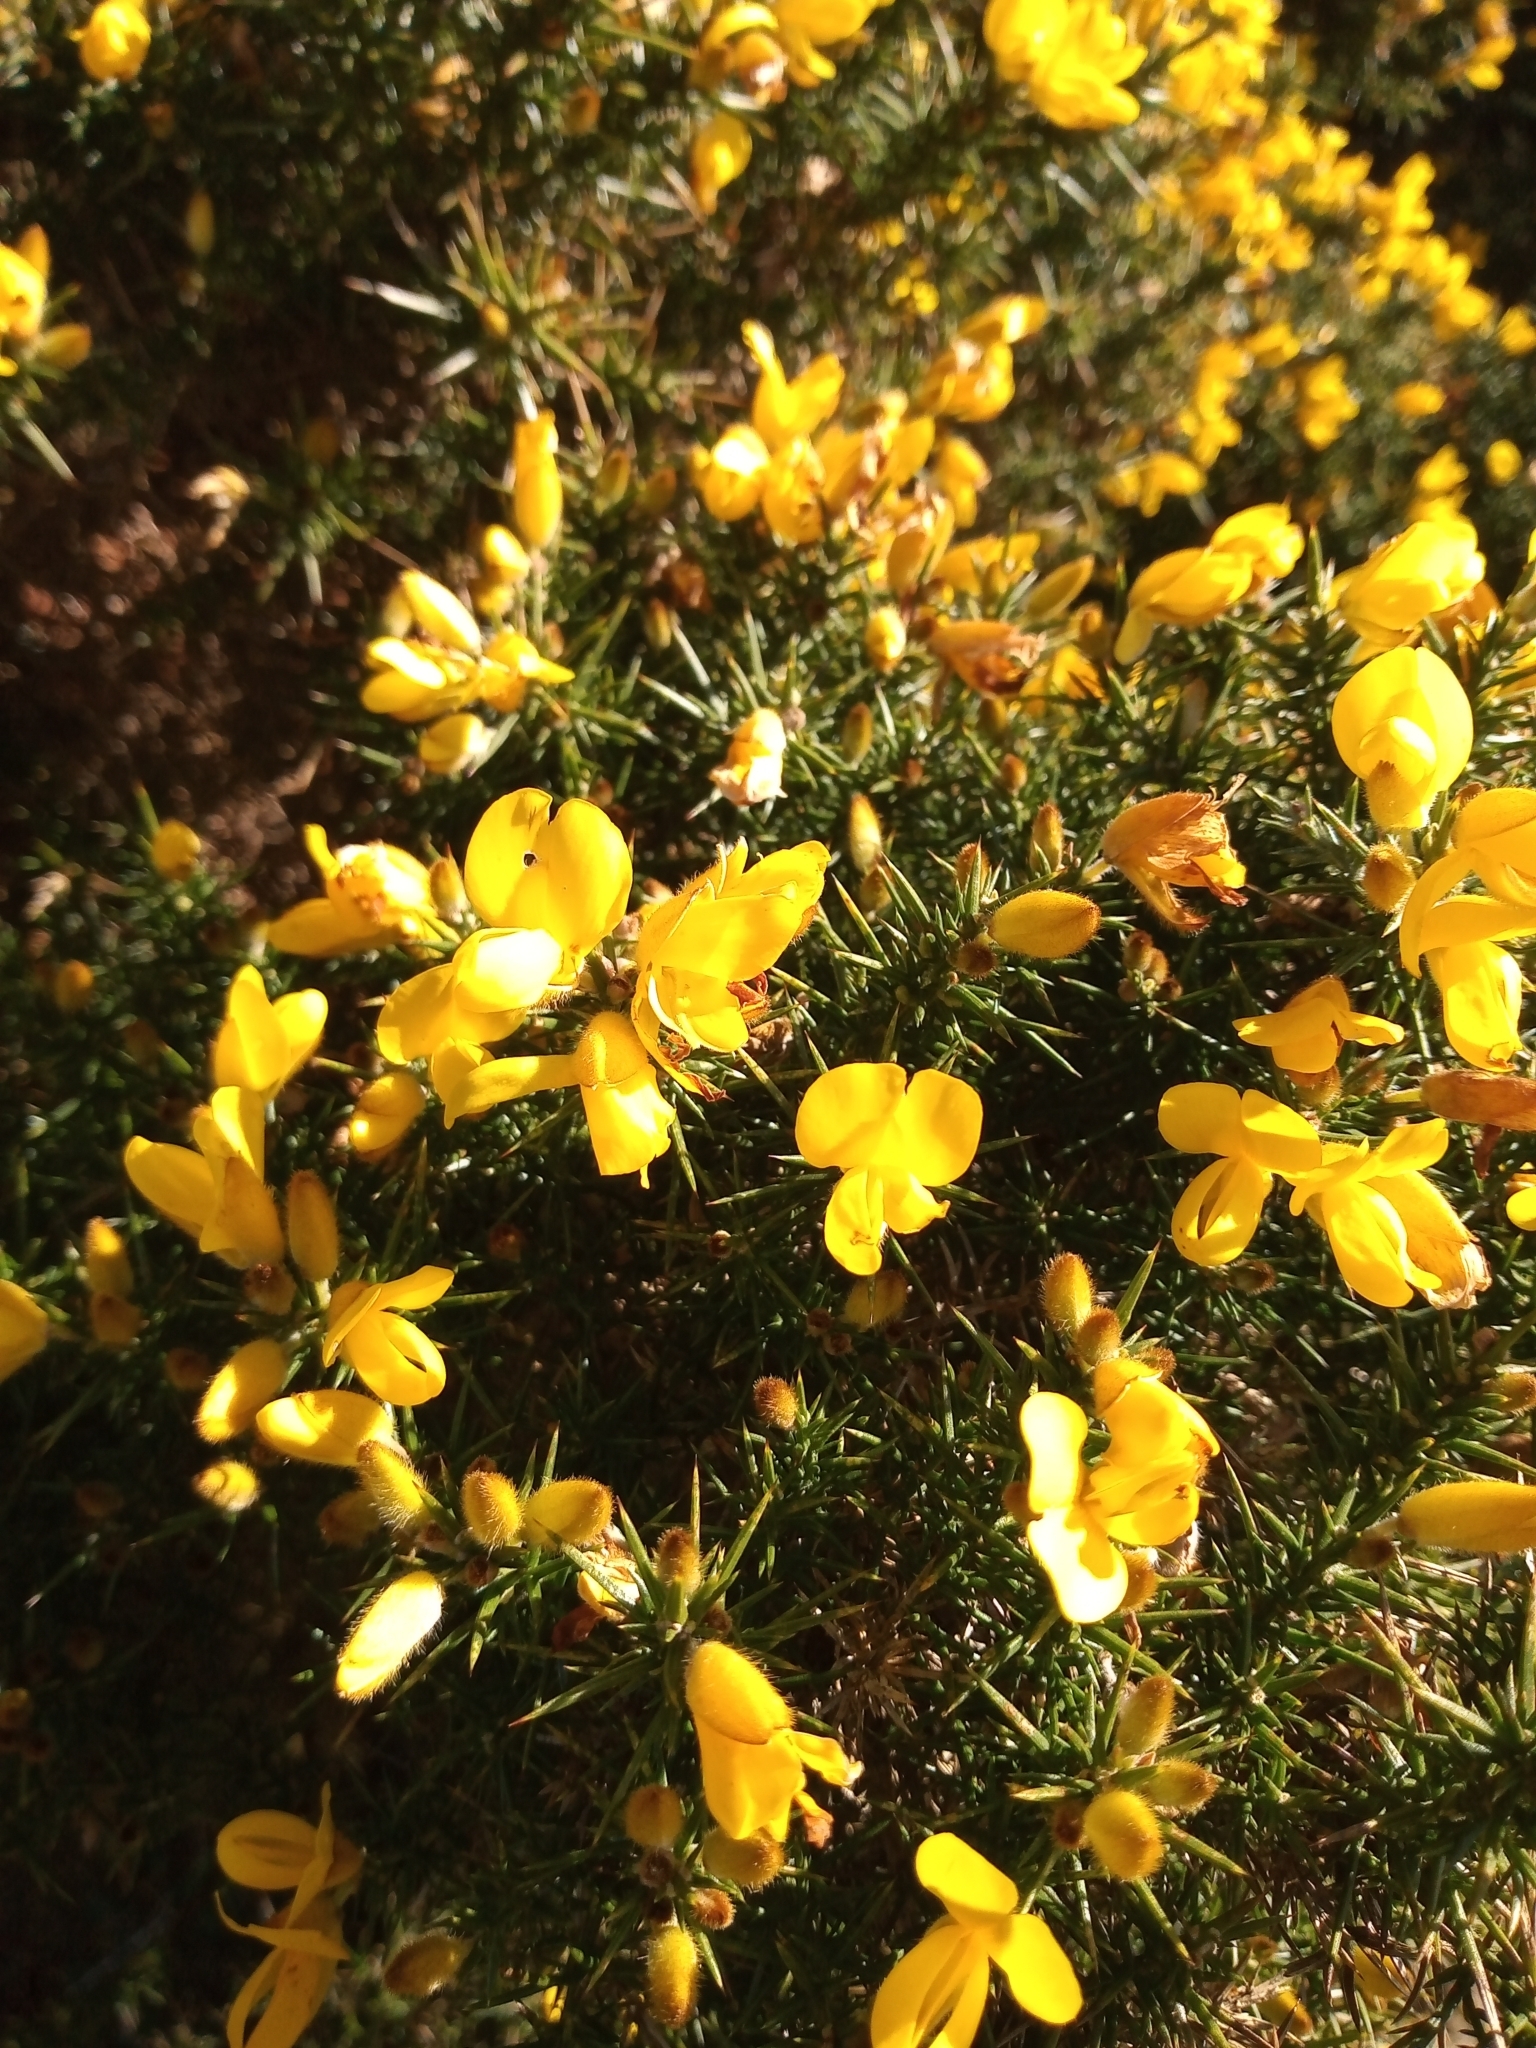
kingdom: Plantae
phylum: Tracheophyta
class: Magnoliopsida
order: Fabales
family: Fabaceae
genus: Ulex
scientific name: Ulex europaeus
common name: Common gorse
